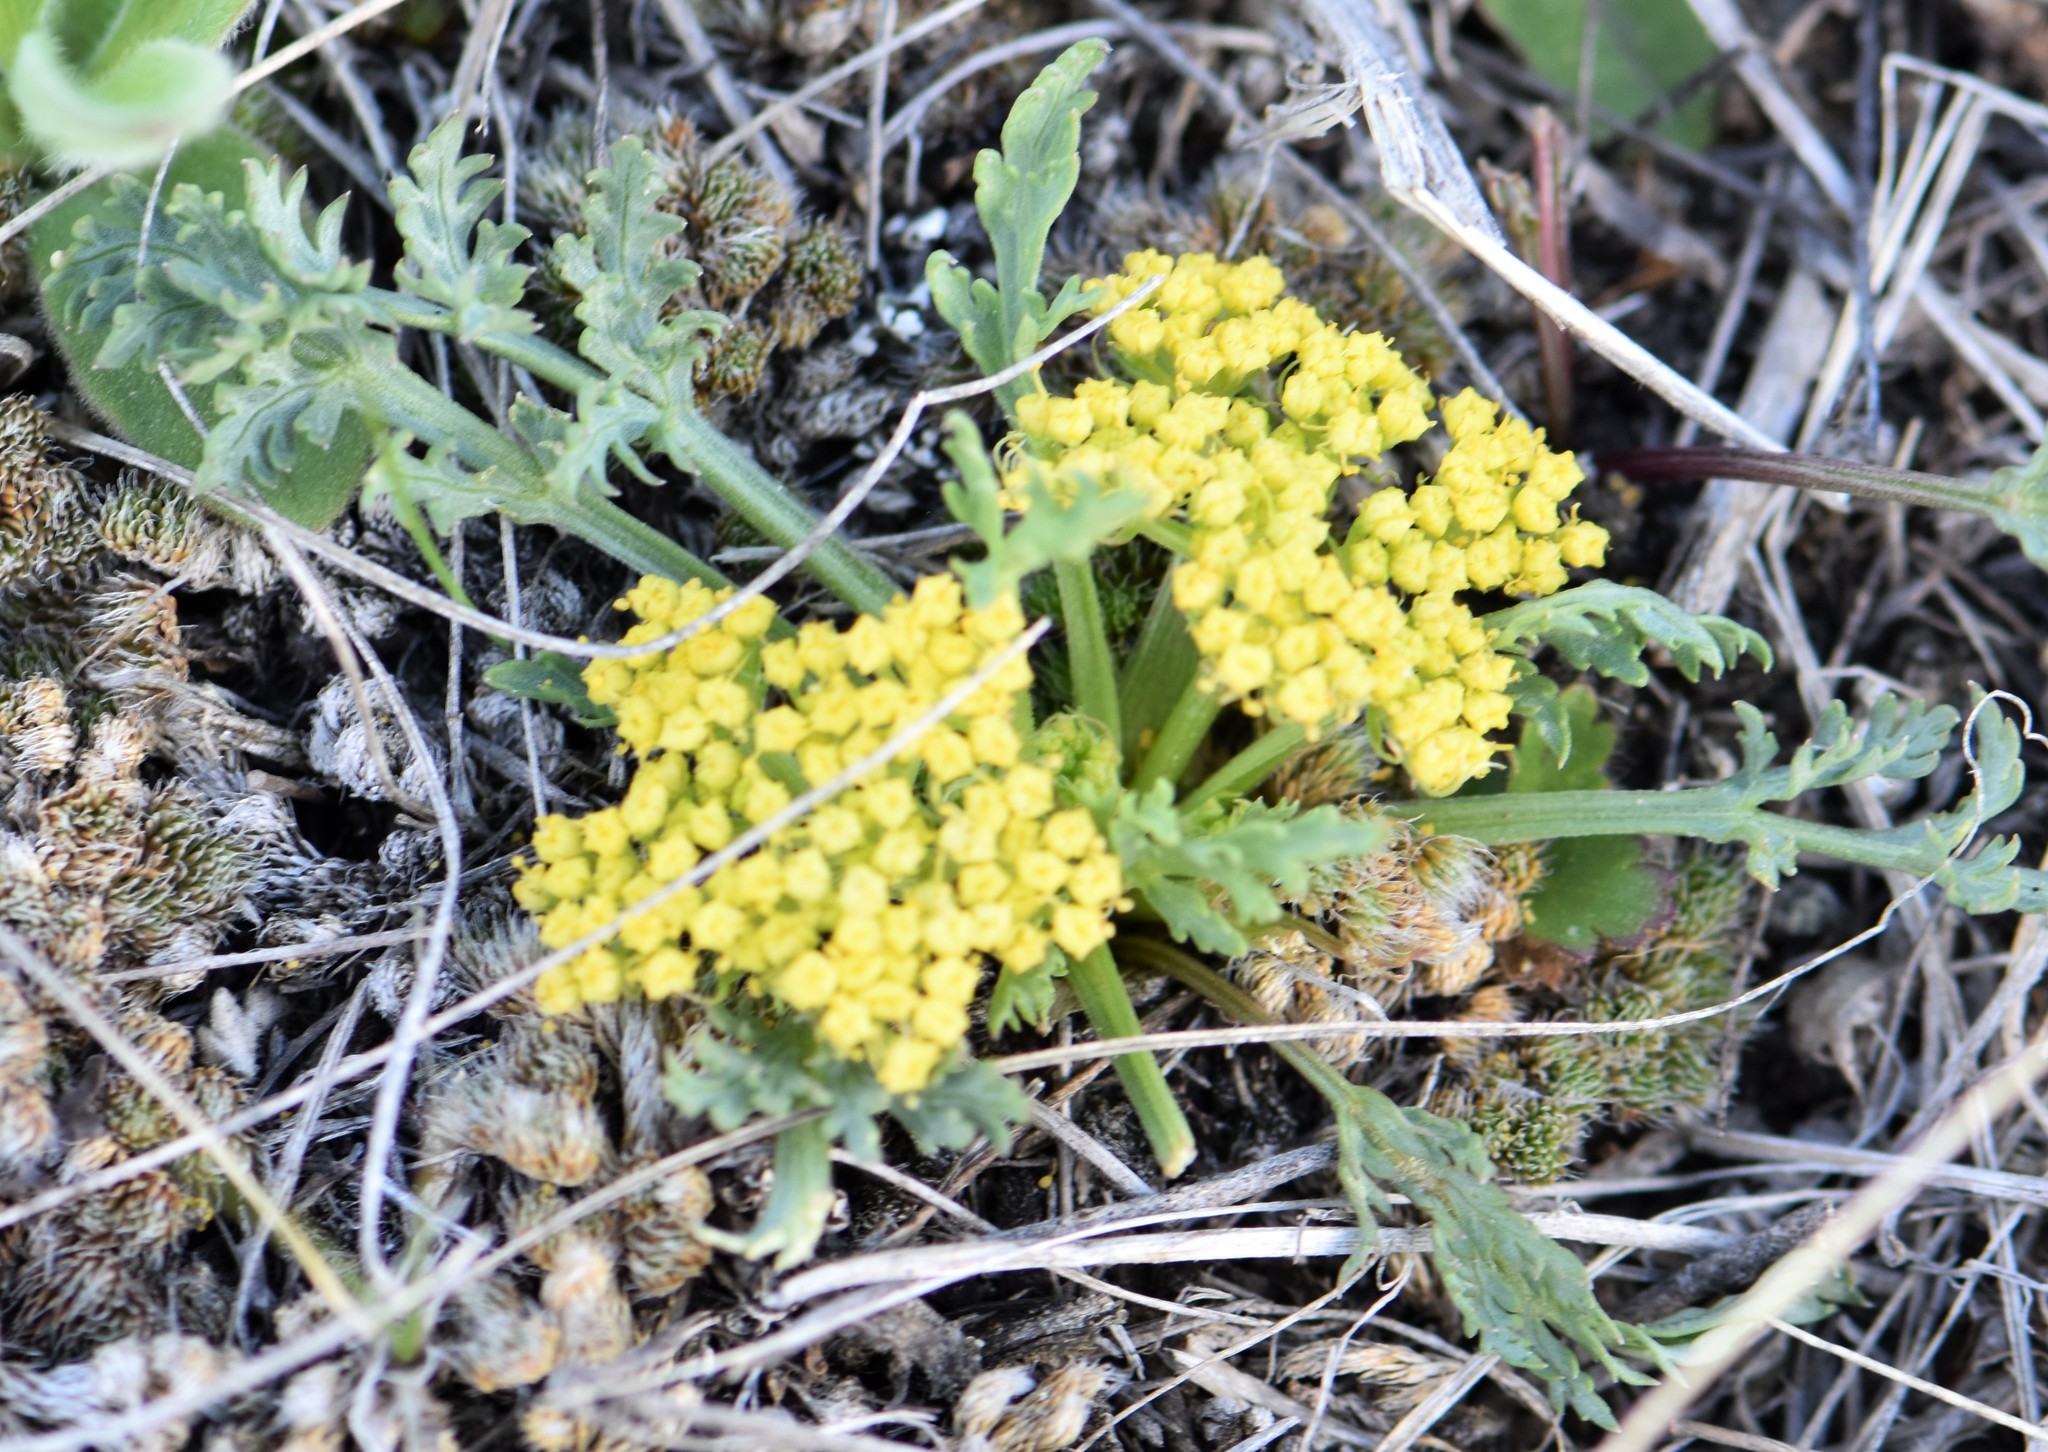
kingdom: Plantae
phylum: Tracheophyta
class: Magnoliopsida
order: Apiales
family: Apiaceae
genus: Musineon
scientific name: Musineon divaricatum
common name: Plains musineon
